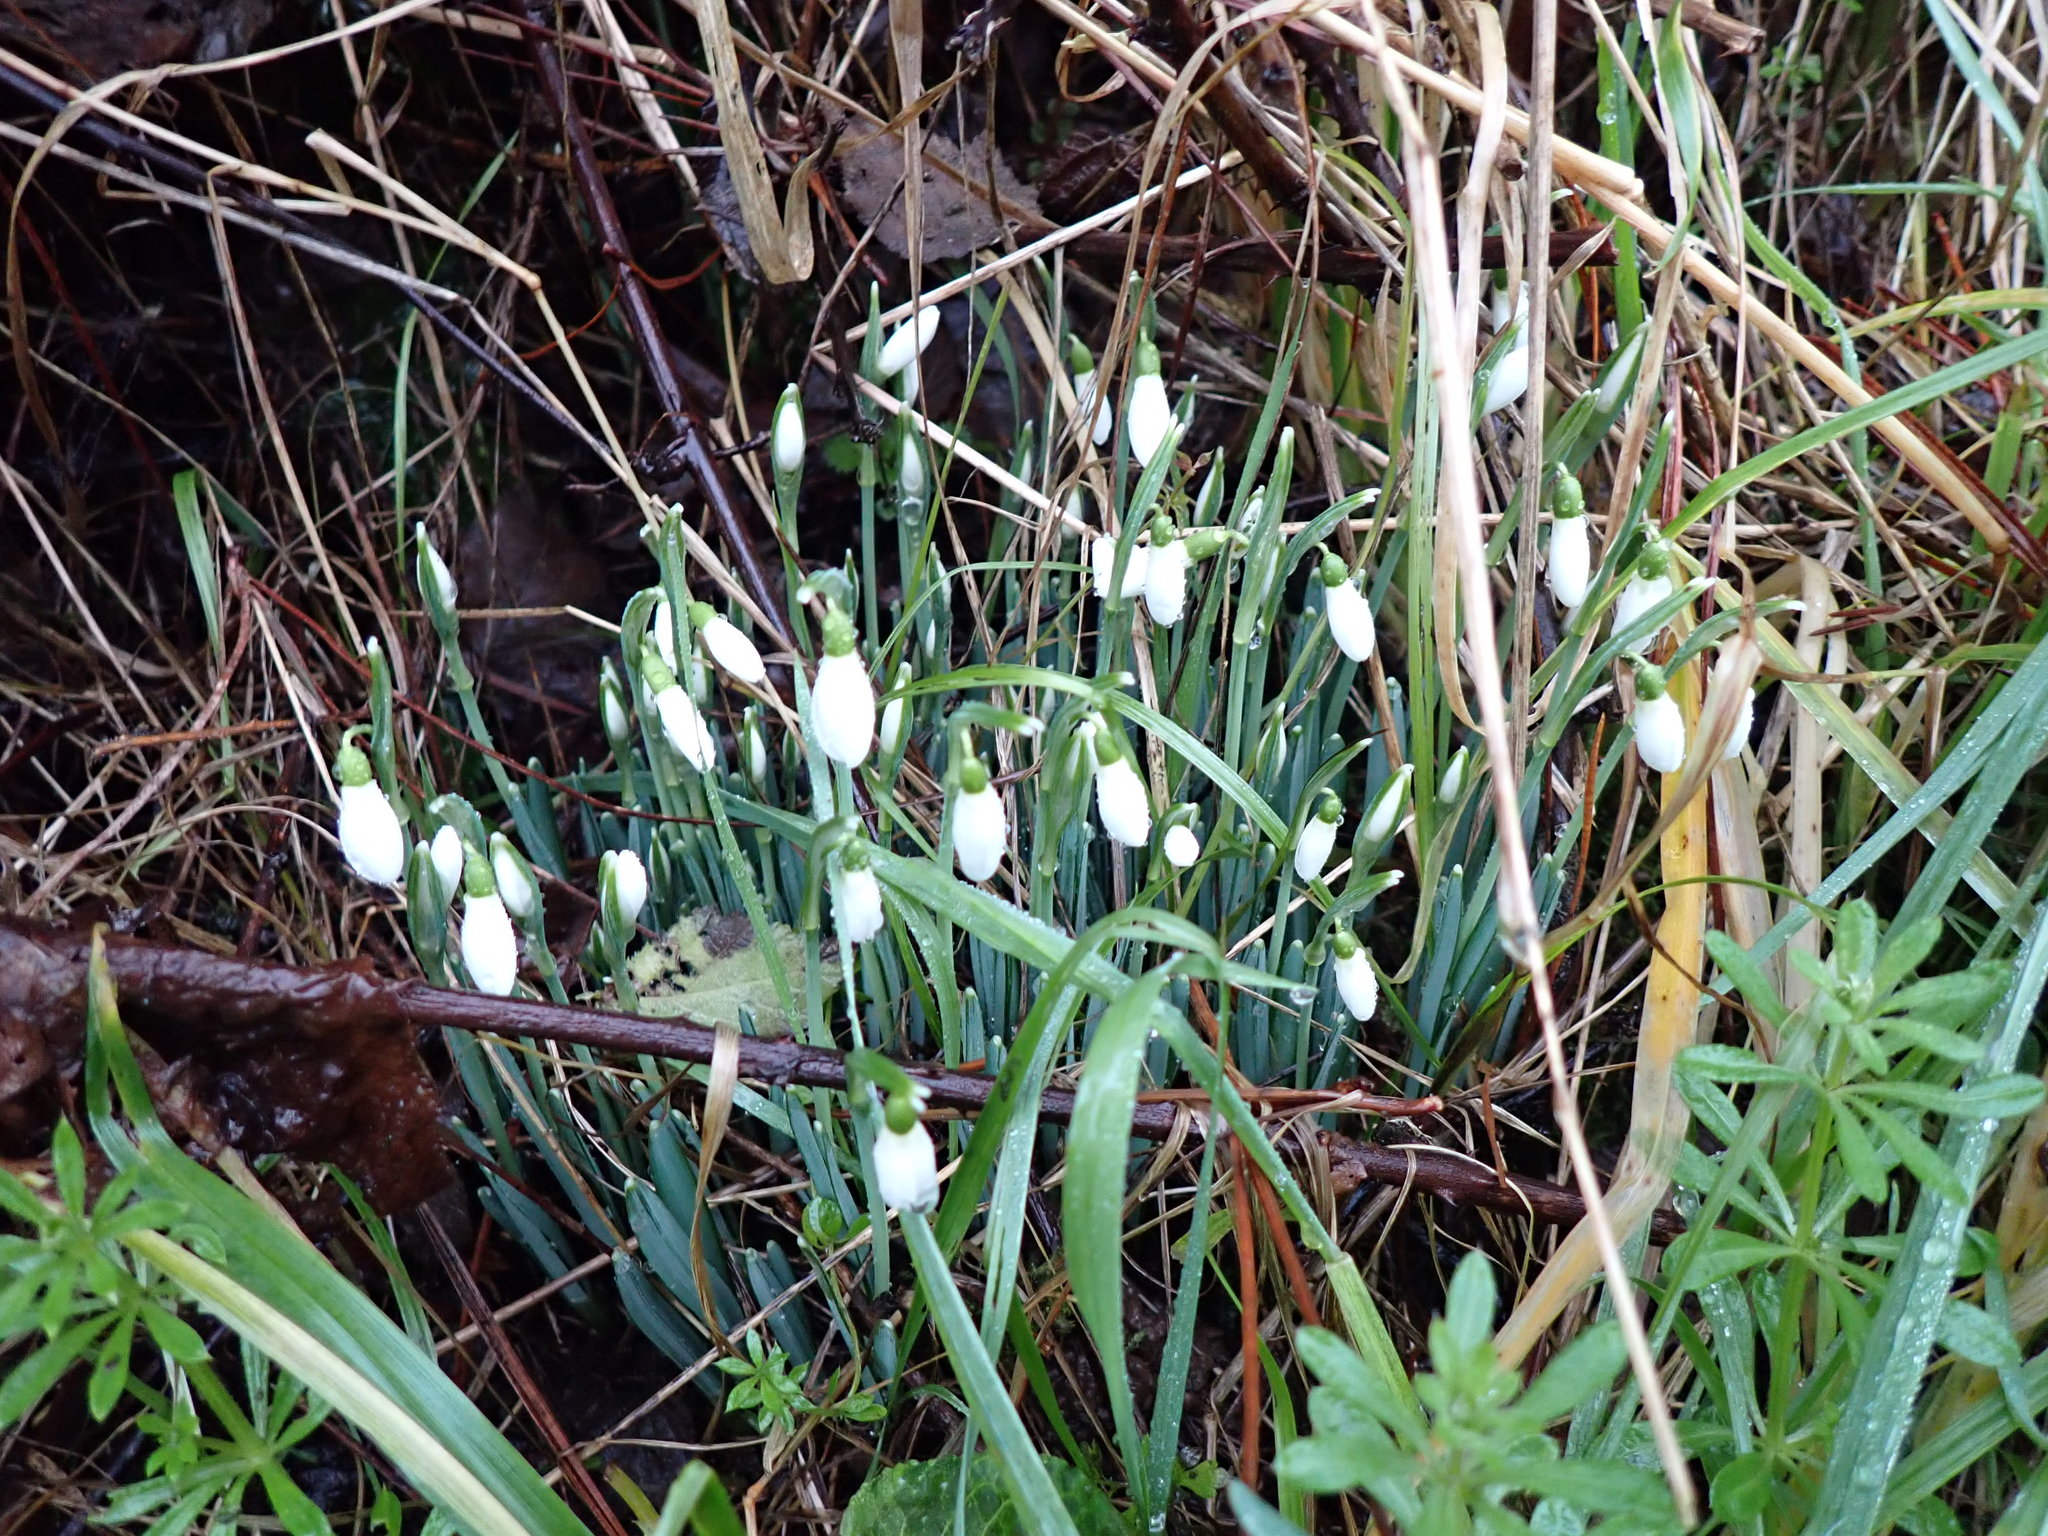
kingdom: Plantae
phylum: Tracheophyta
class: Liliopsida
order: Asparagales
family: Amaryllidaceae
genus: Galanthus
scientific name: Galanthus nivalis
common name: Snowdrop
